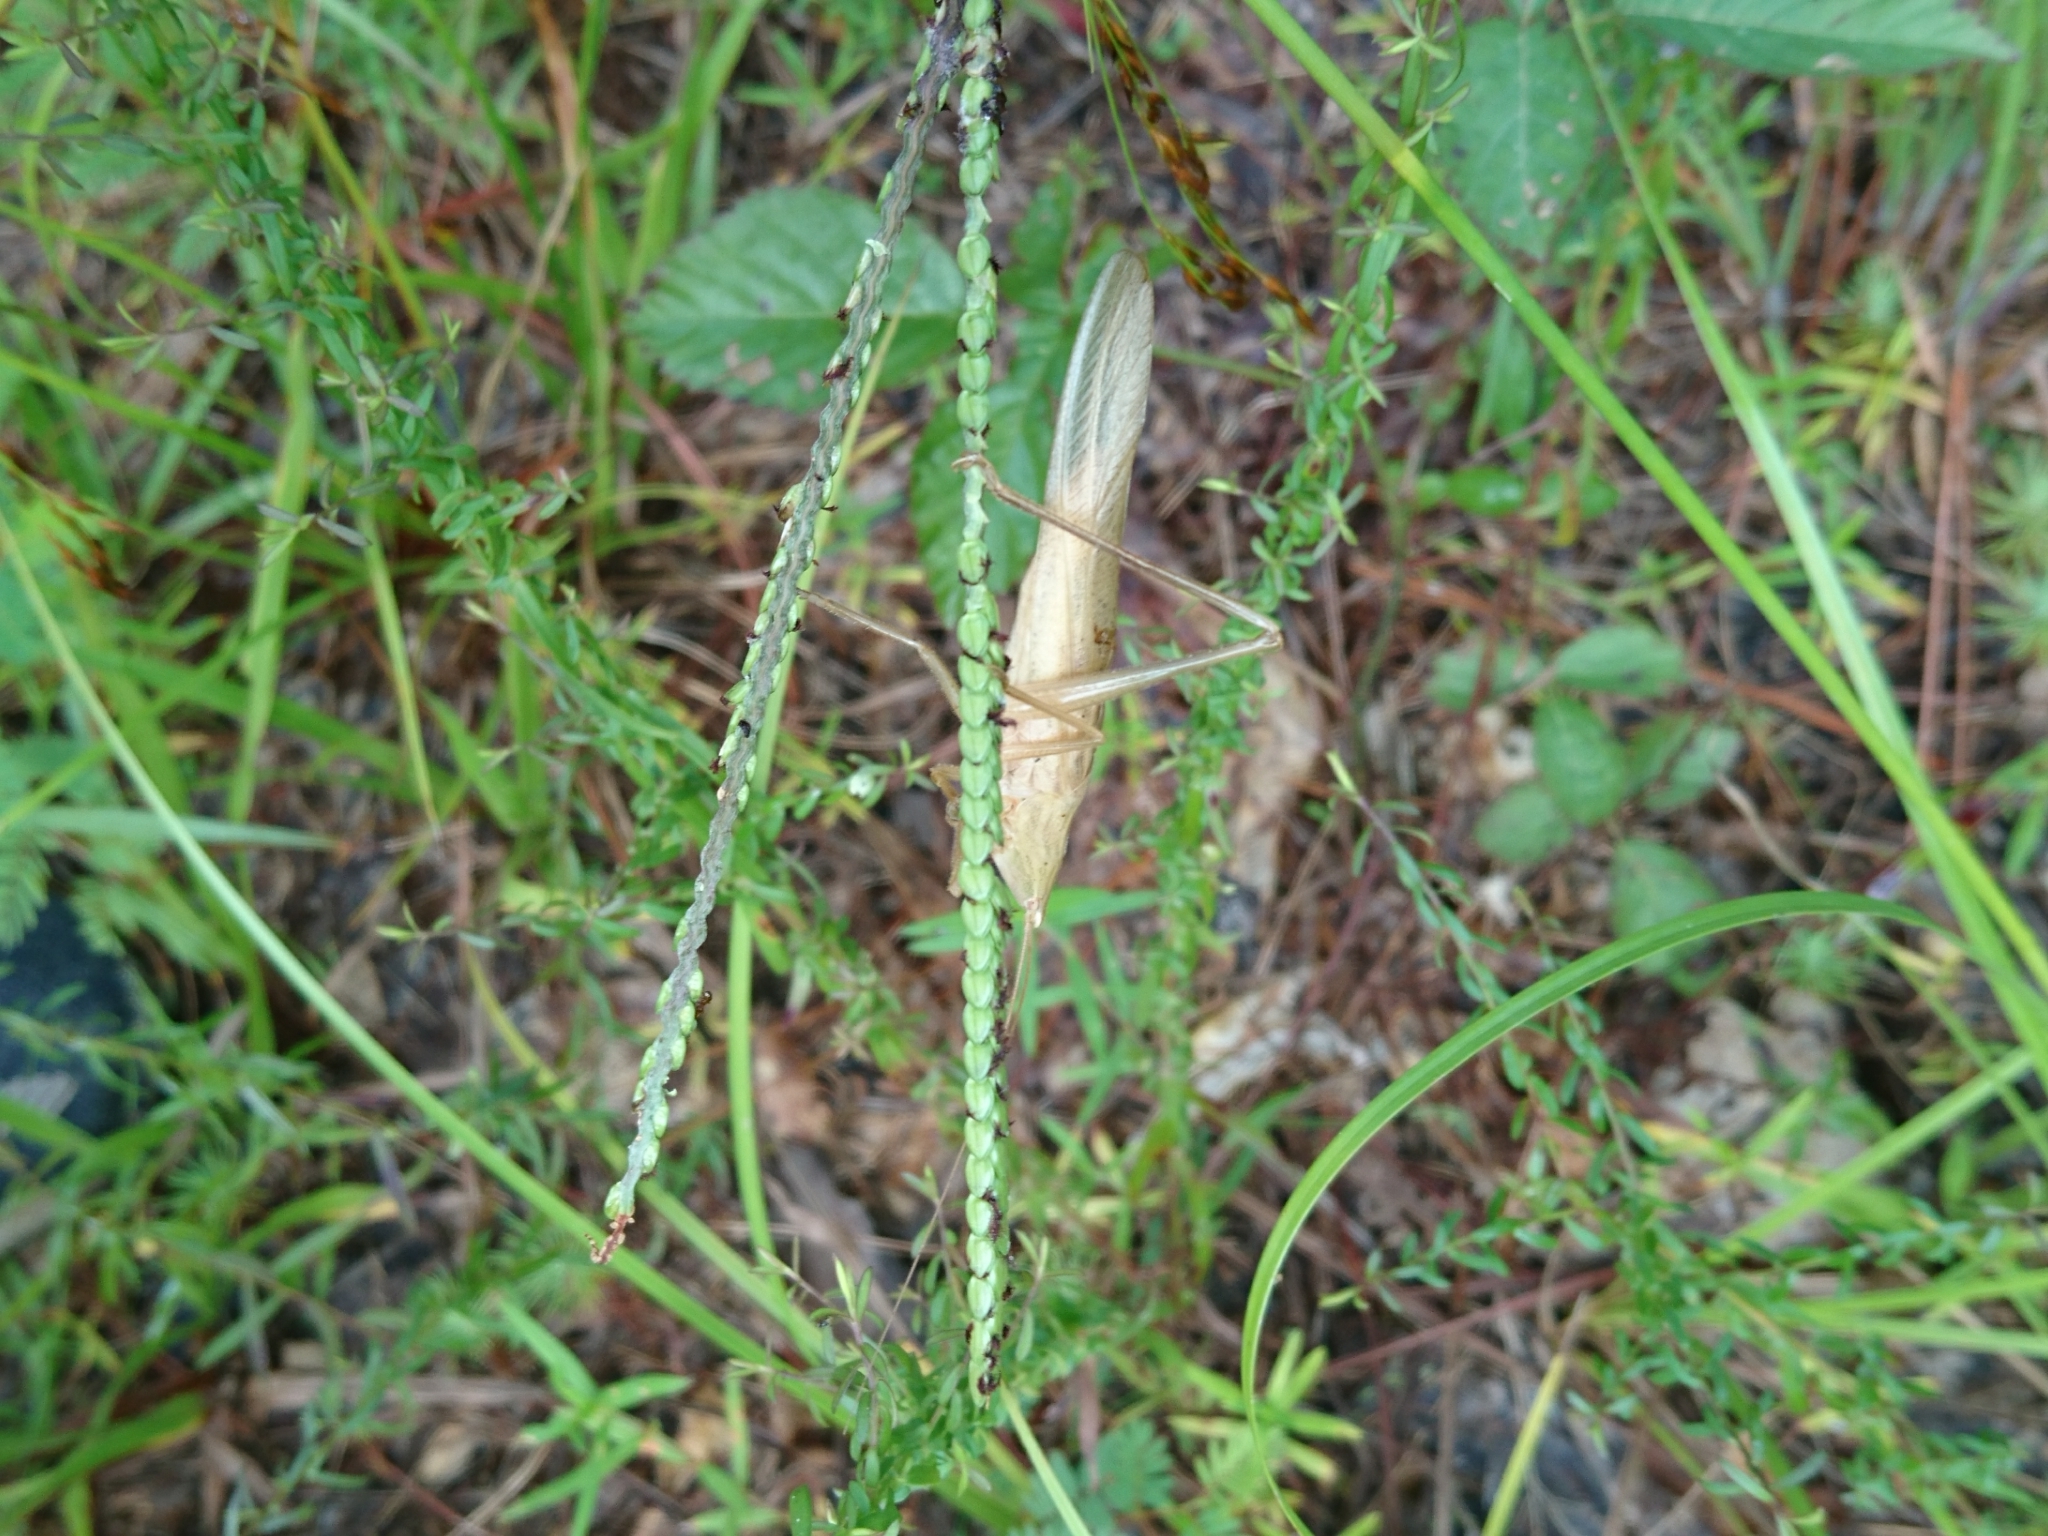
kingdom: Animalia
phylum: Arthropoda
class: Insecta
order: Orthoptera
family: Tettigoniidae
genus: Neoconocephalus
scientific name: Neoconocephalus velox
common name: Swift conehead
